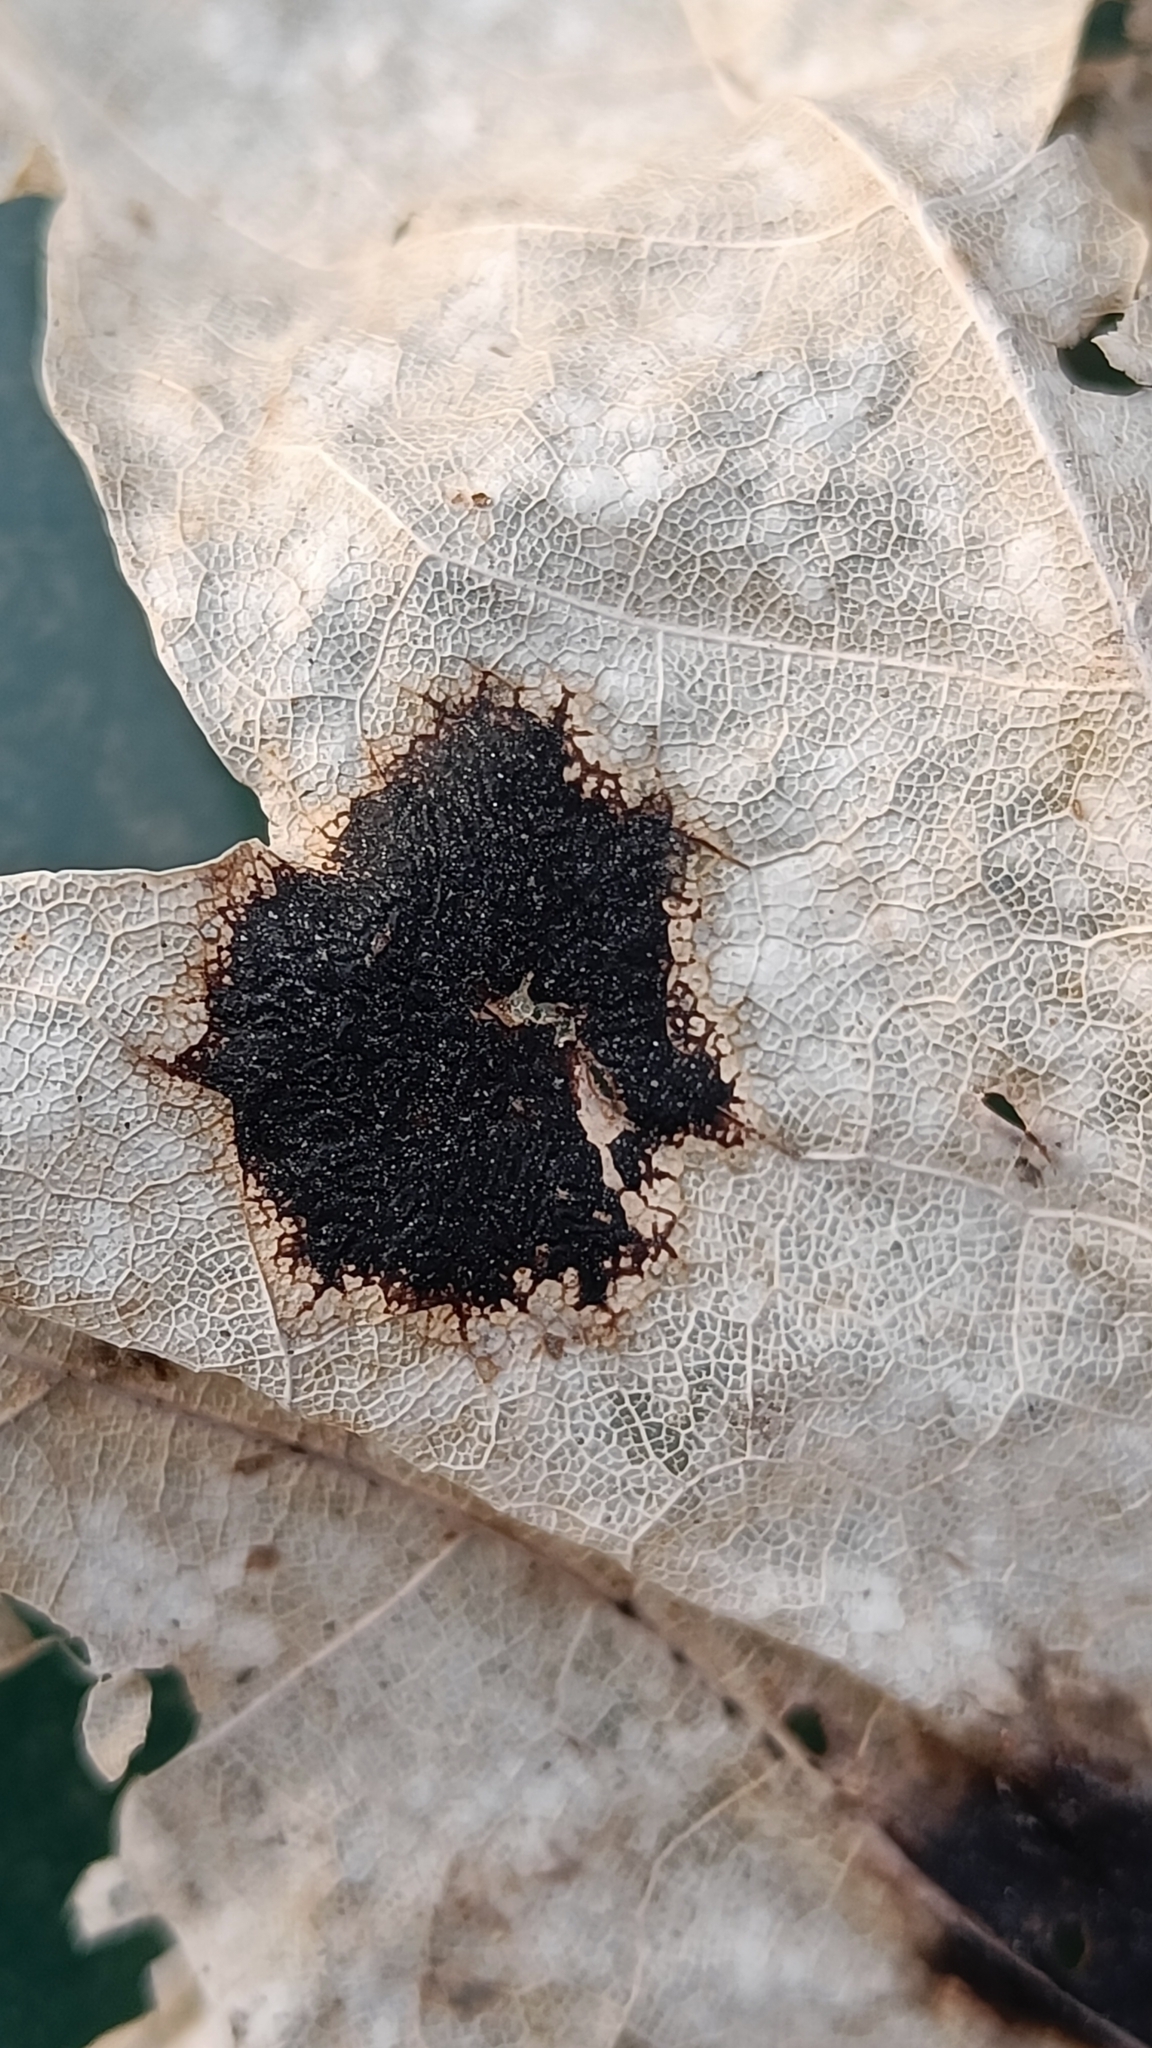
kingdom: Fungi
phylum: Ascomycota
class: Leotiomycetes
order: Rhytismatales
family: Rhytismataceae
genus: Rhytisma
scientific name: Rhytisma acerinum
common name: European tar spot
